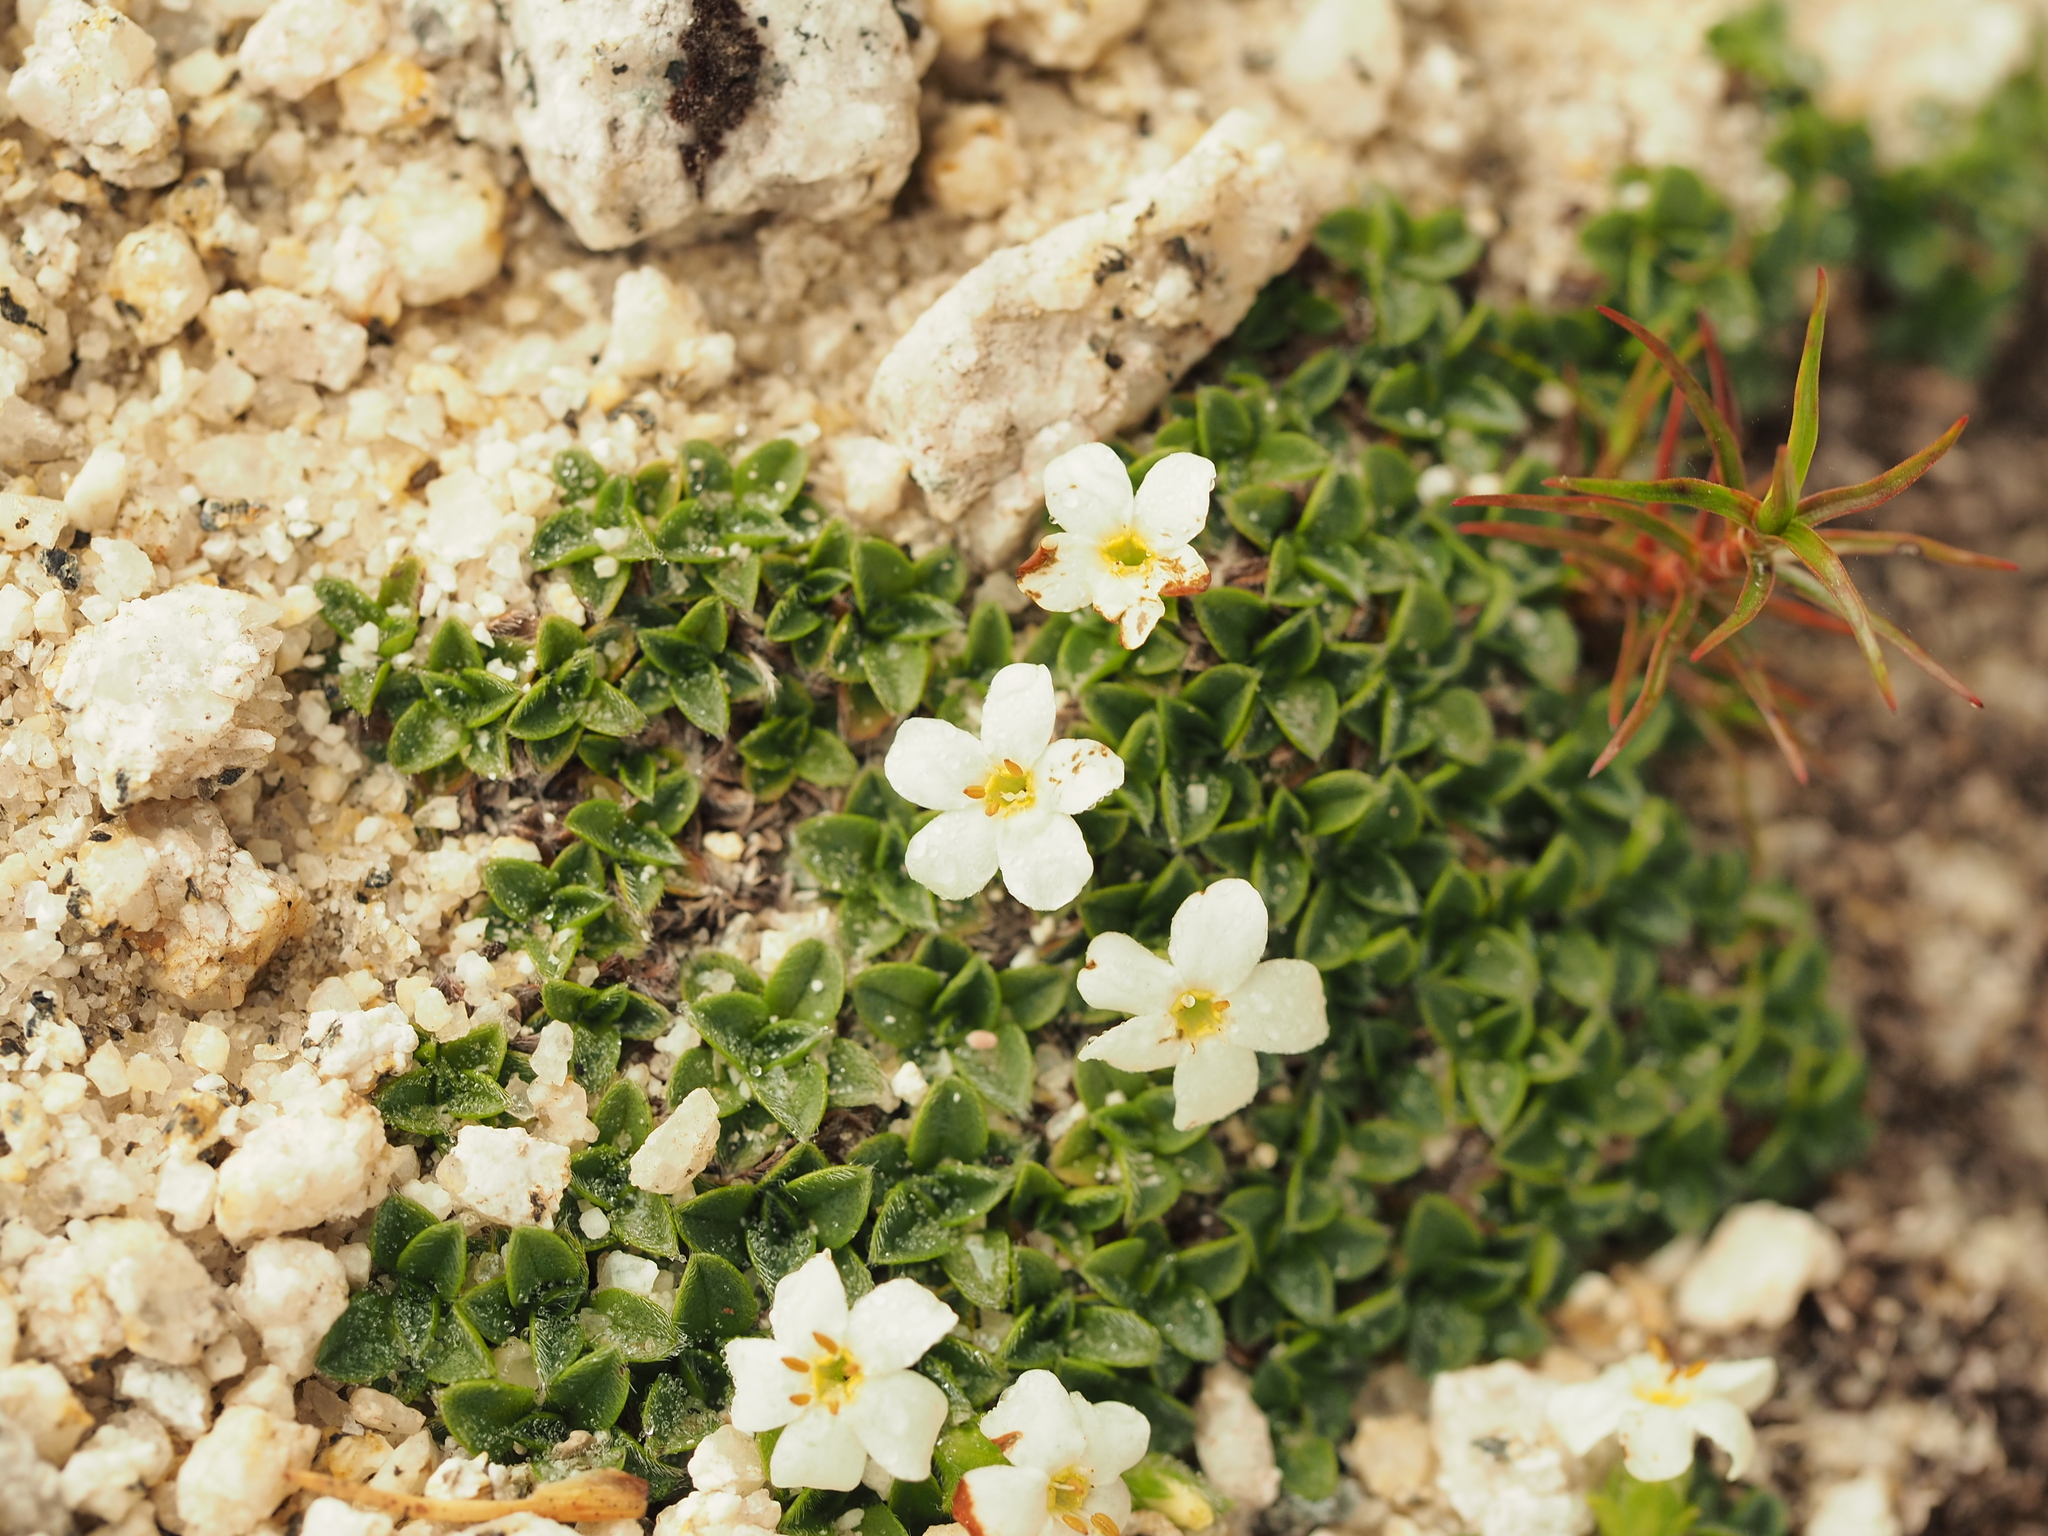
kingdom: Plantae
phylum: Tracheophyta
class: Magnoliopsida
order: Boraginales
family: Boraginaceae
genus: Myosotis
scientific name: Myosotis retrorsa
